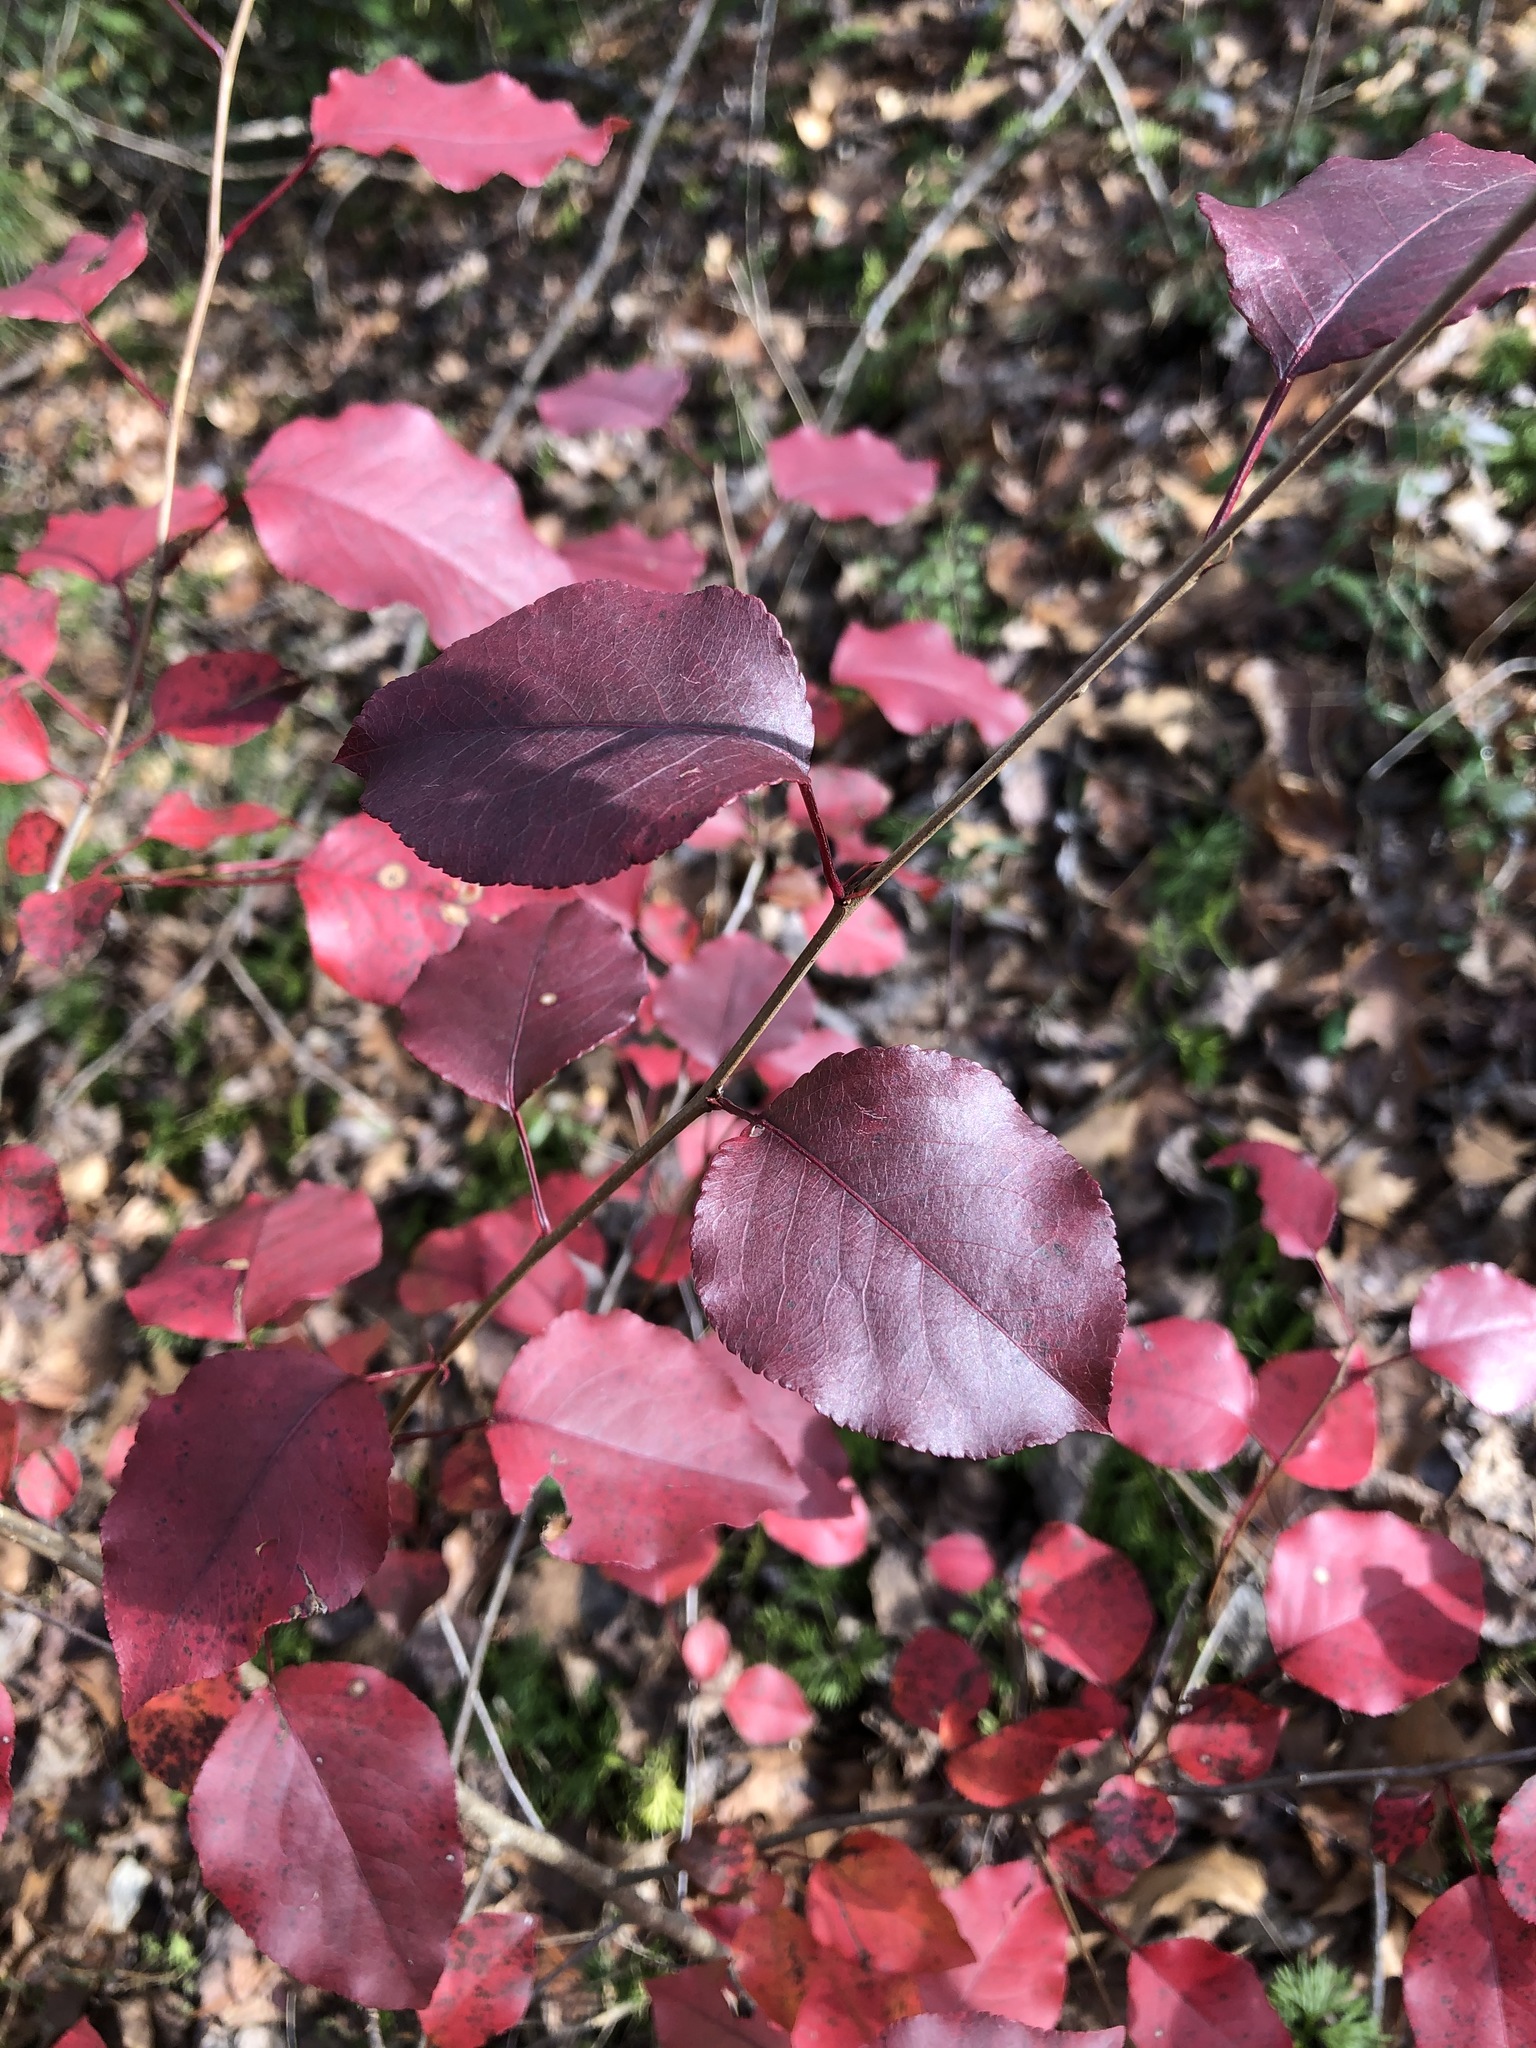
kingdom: Plantae
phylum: Tracheophyta
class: Magnoliopsida
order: Rosales
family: Rosaceae
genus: Pyrus
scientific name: Pyrus calleryana
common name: Callery pear
